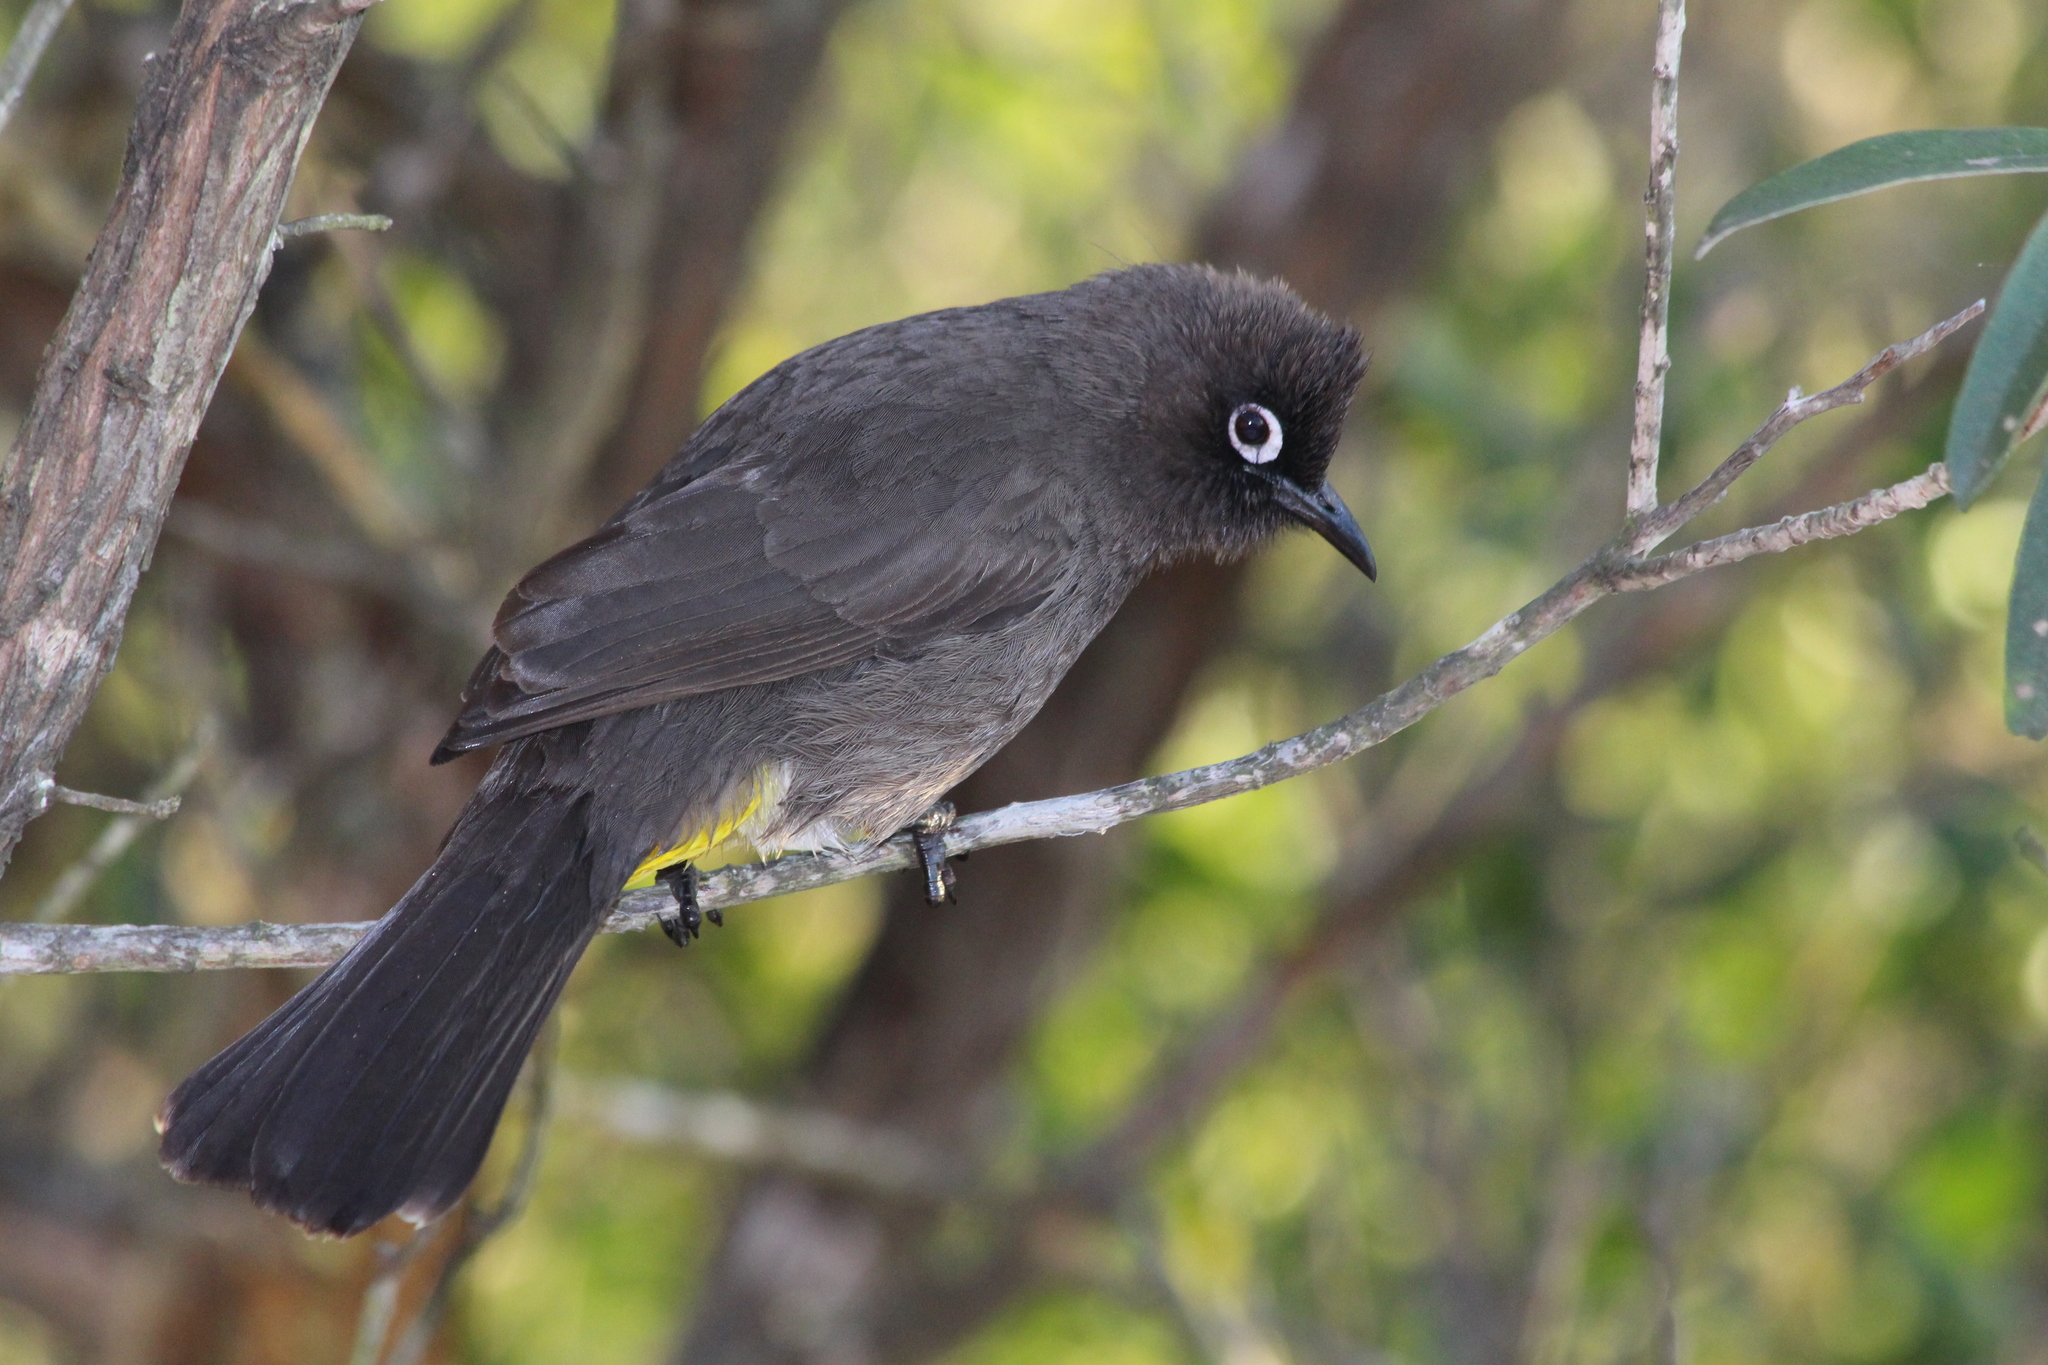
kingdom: Animalia
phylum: Chordata
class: Aves
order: Passeriformes
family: Pycnonotidae
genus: Pycnonotus
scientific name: Pycnonotus capensis
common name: Cape bulbul
